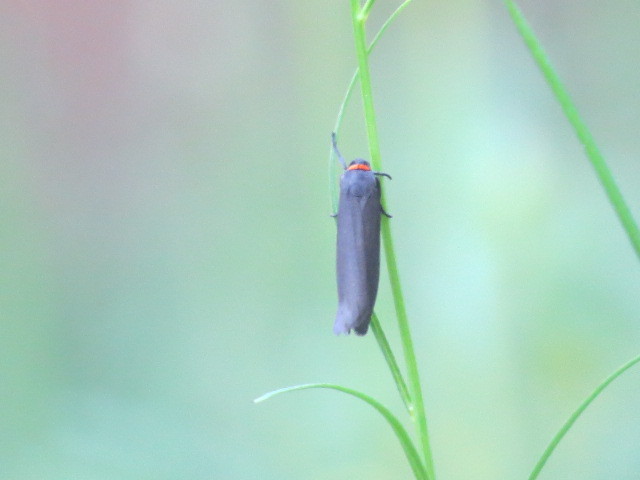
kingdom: Animalia
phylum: Arthropoda
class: Insecta
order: Lepidoptera
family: Erebidae
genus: Atolmis
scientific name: Atolmis rubricollis
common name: Red-necked footman
